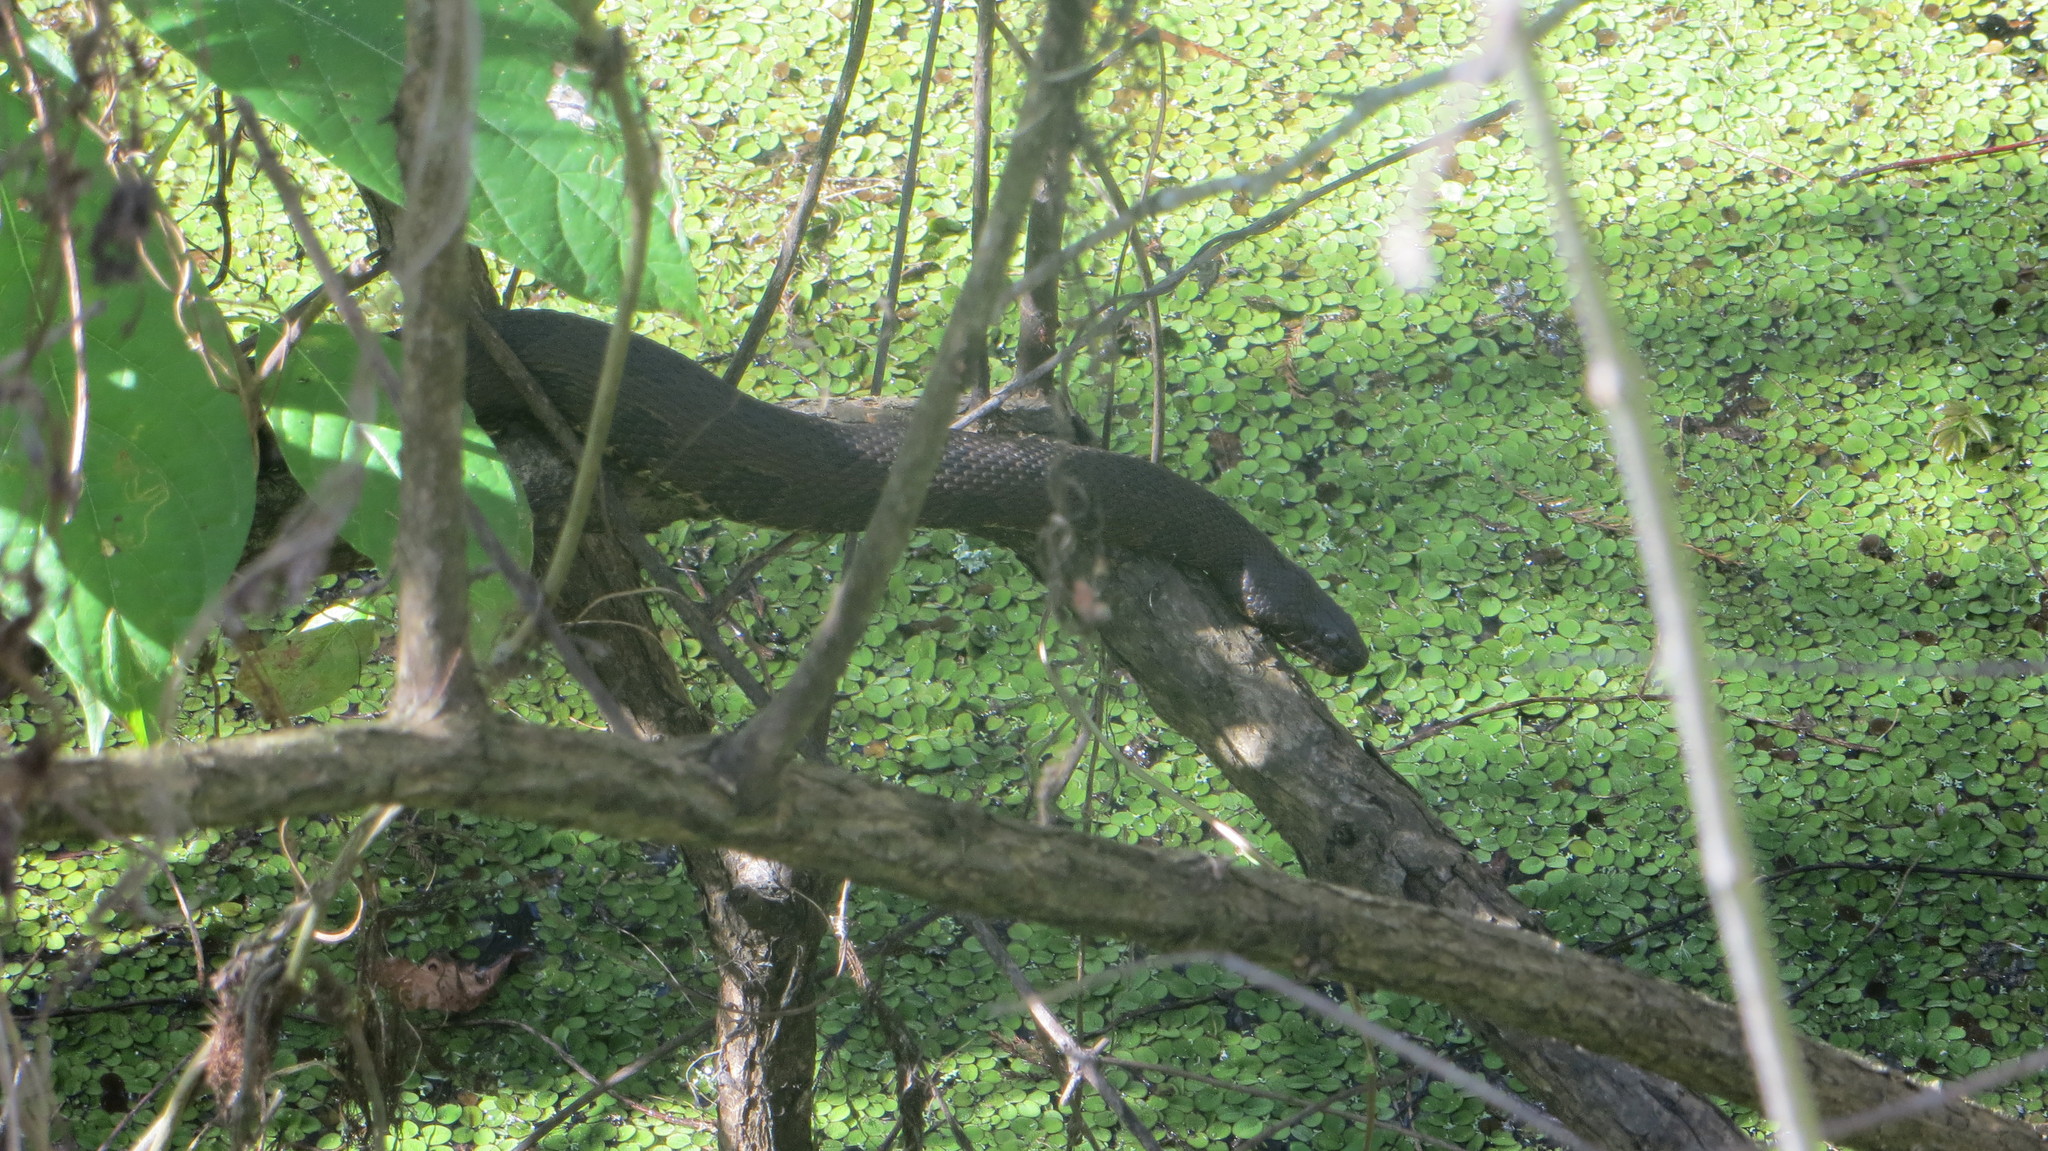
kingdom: Animalia
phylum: Chordata
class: Squamata
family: Colubridae
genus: Nerodia
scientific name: Nerodia taxispilota
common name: Brown water snake
